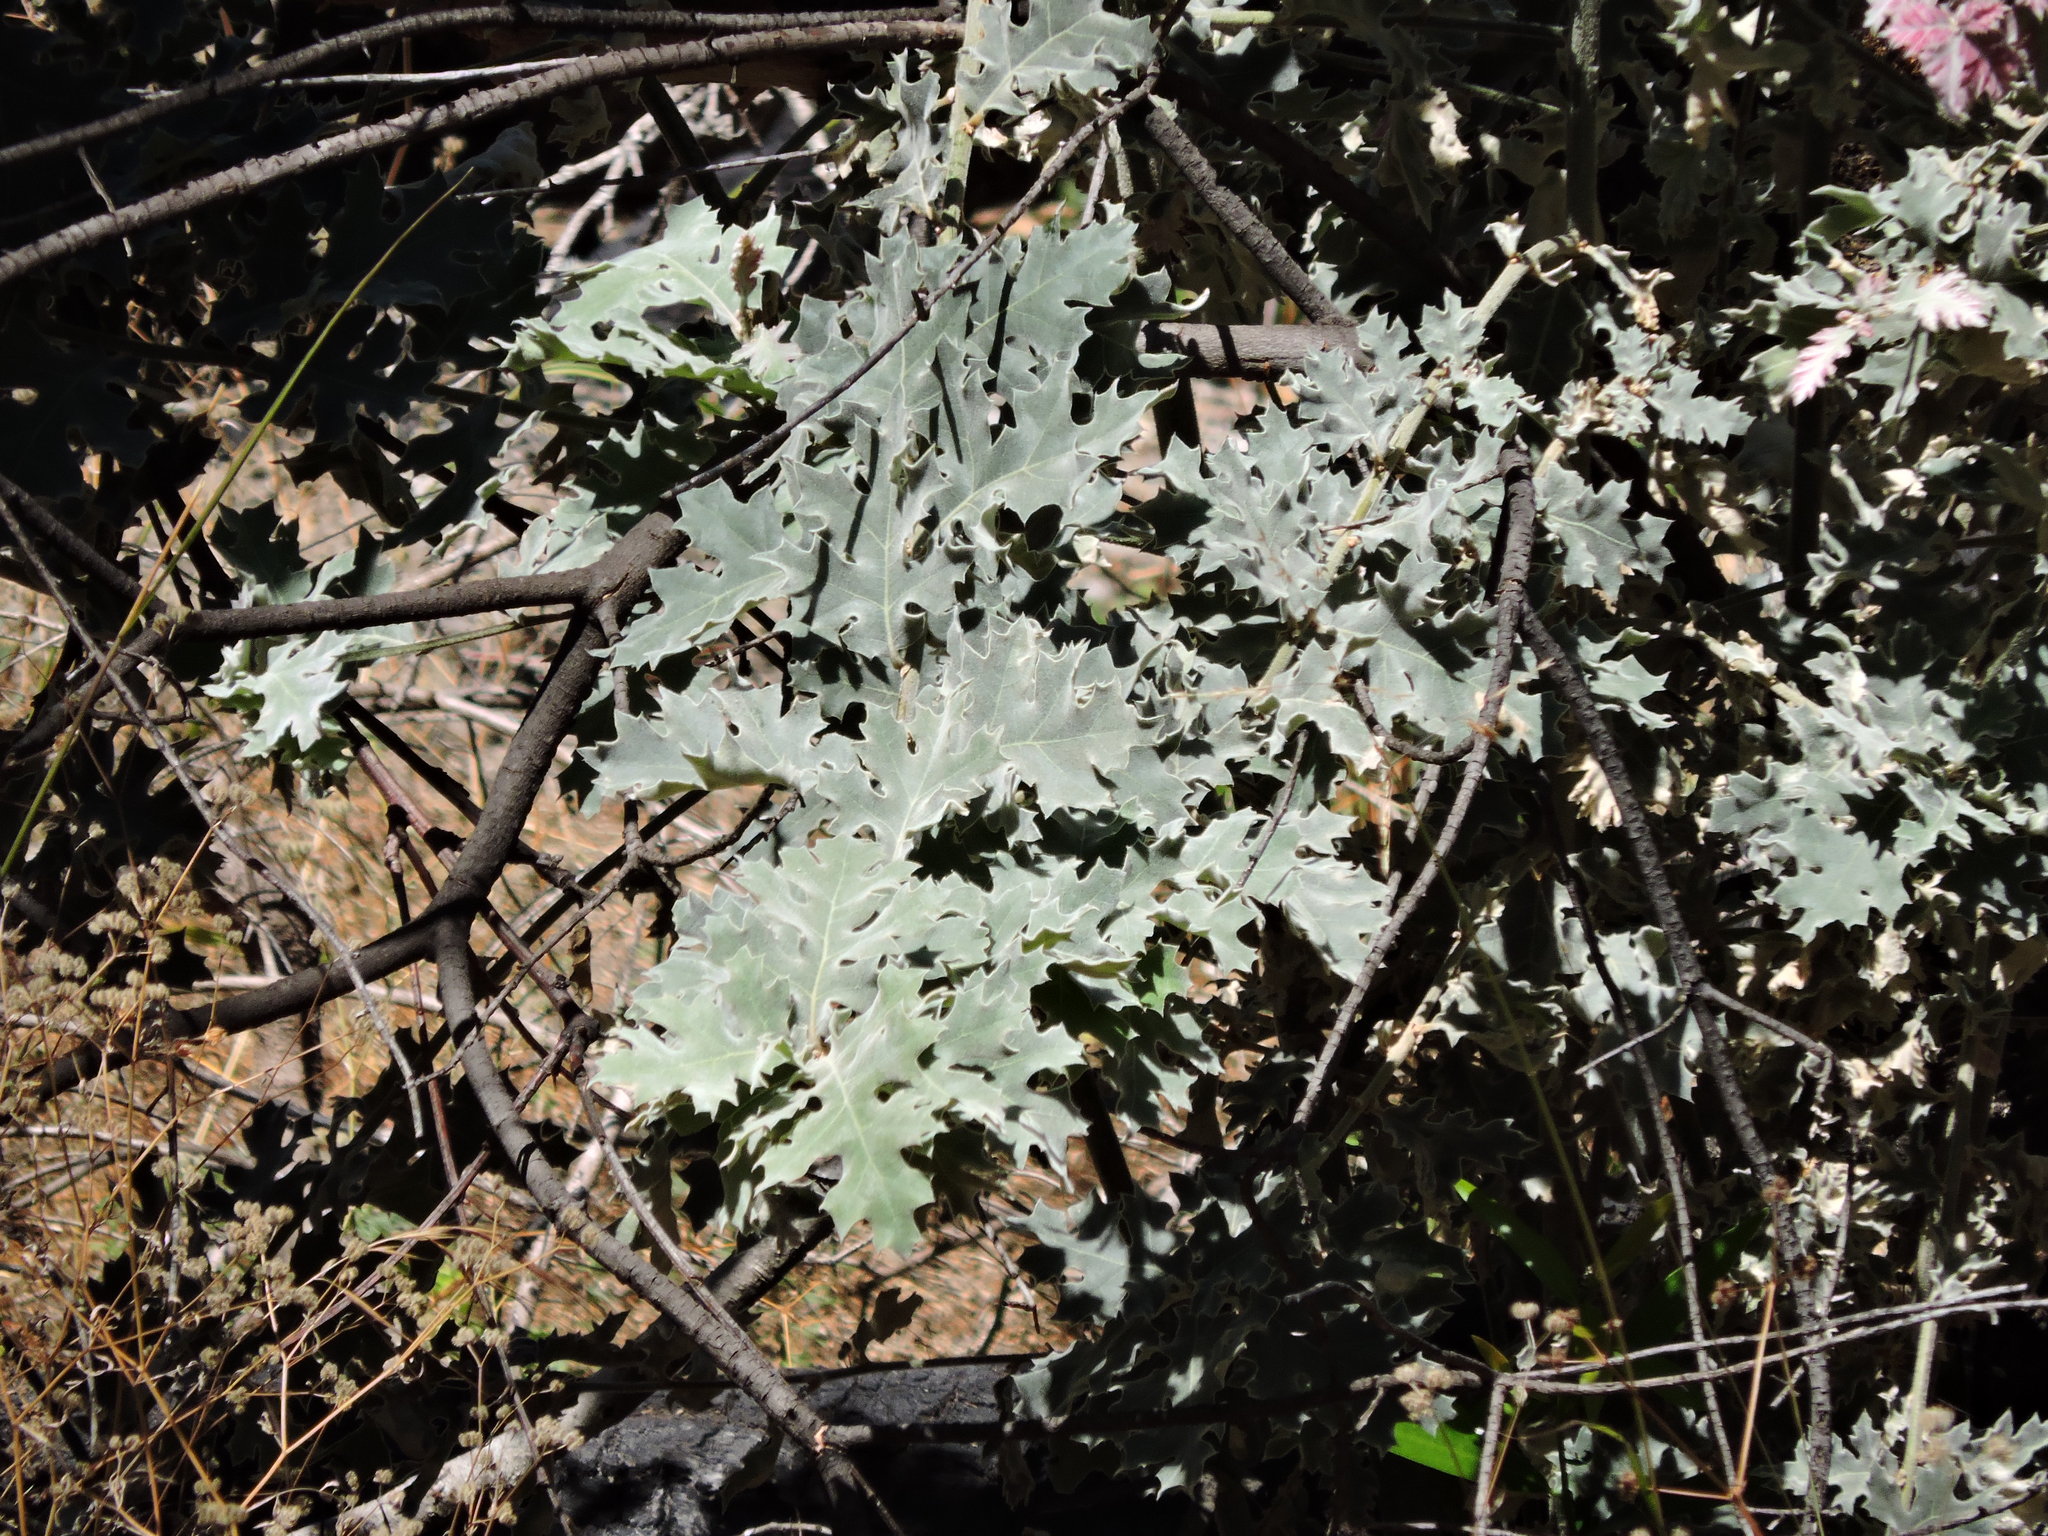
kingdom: Plantae
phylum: Tracheophyta
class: Magnoliopsida
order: Fagales
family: Fagaceae
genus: Quercus
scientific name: Quercus kelloggii
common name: California black oak
